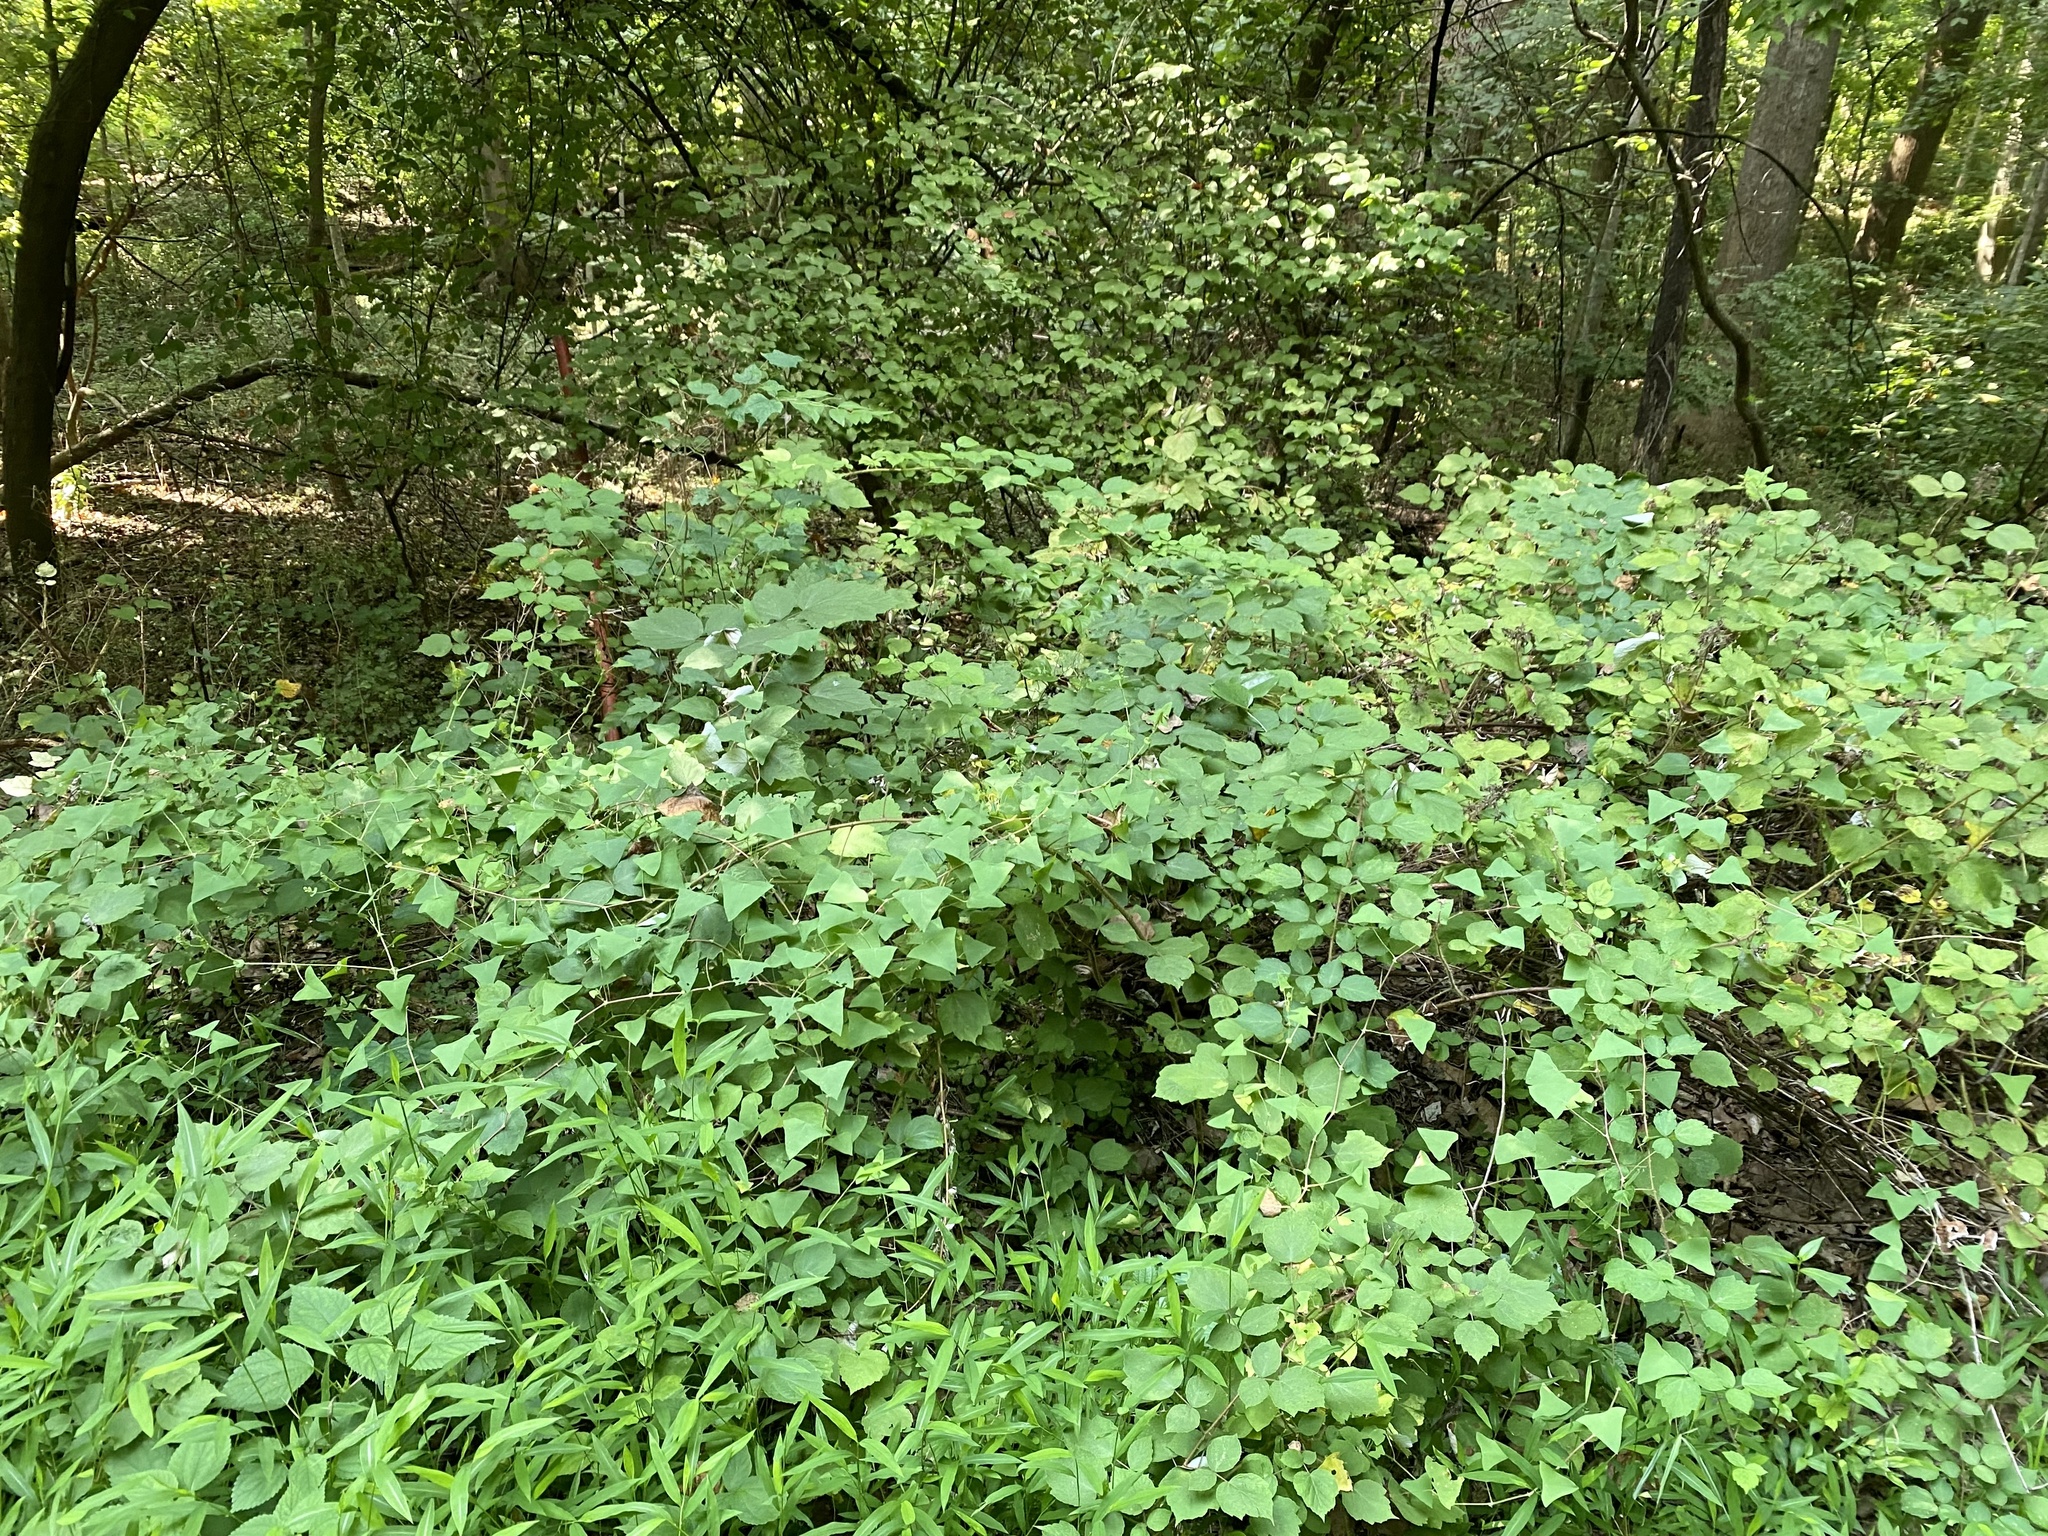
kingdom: Plantae
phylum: Tracheophyta
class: Magnoliopsida
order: Caryophyllales
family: Polygonaceae
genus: Persicaria
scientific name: Persicaria perfoliata
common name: Asiatic tearthumb
